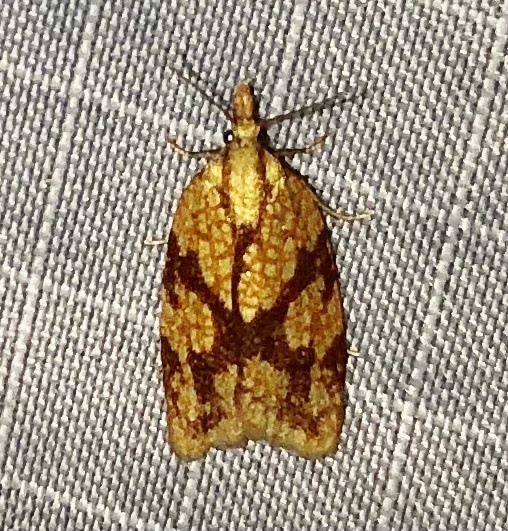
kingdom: Animalia
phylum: Arthropoda
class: Insecta
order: Lepidoptera
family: Tortricidae
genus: Sparganothis
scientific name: Sparganothis sulfureana
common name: Sparganothis fruitworm moth
